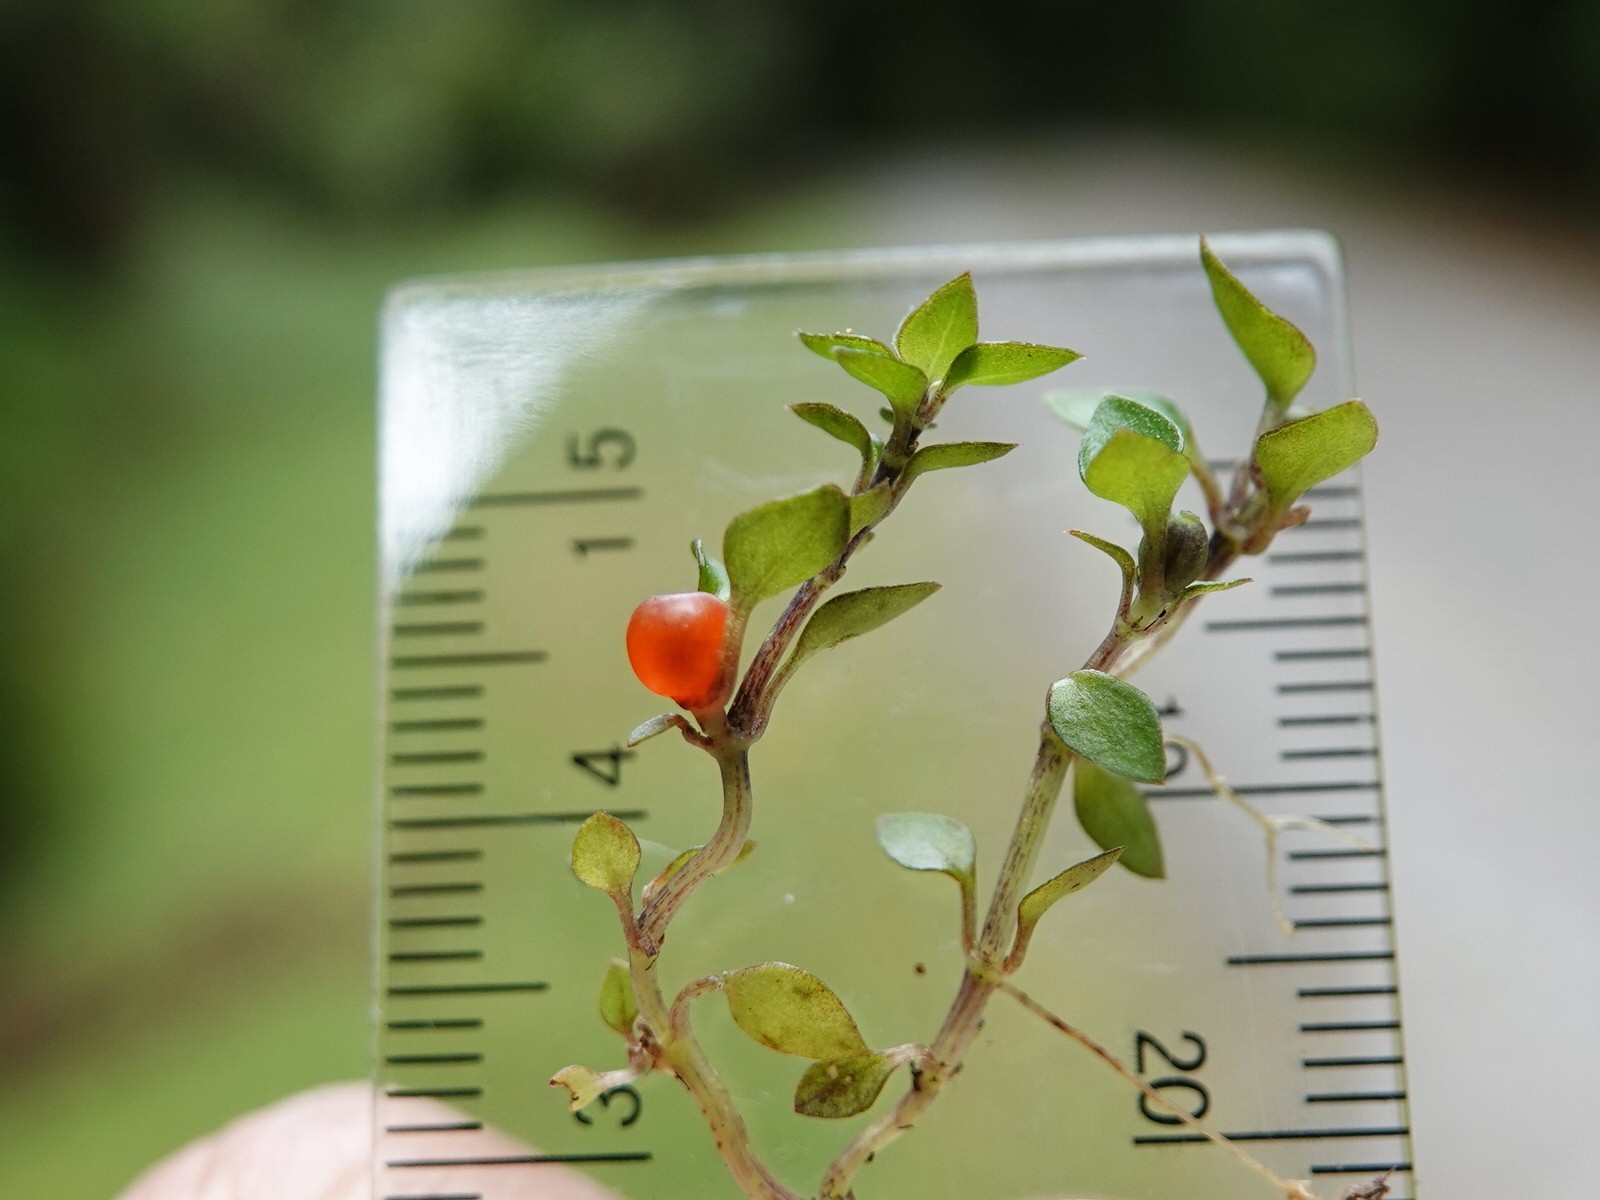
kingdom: Plantae
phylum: Tracheophyta
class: Magnoliopsida
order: Gentianales
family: Rubiaceae
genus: Nertera
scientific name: Nertera granadensis
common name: Beadplant
